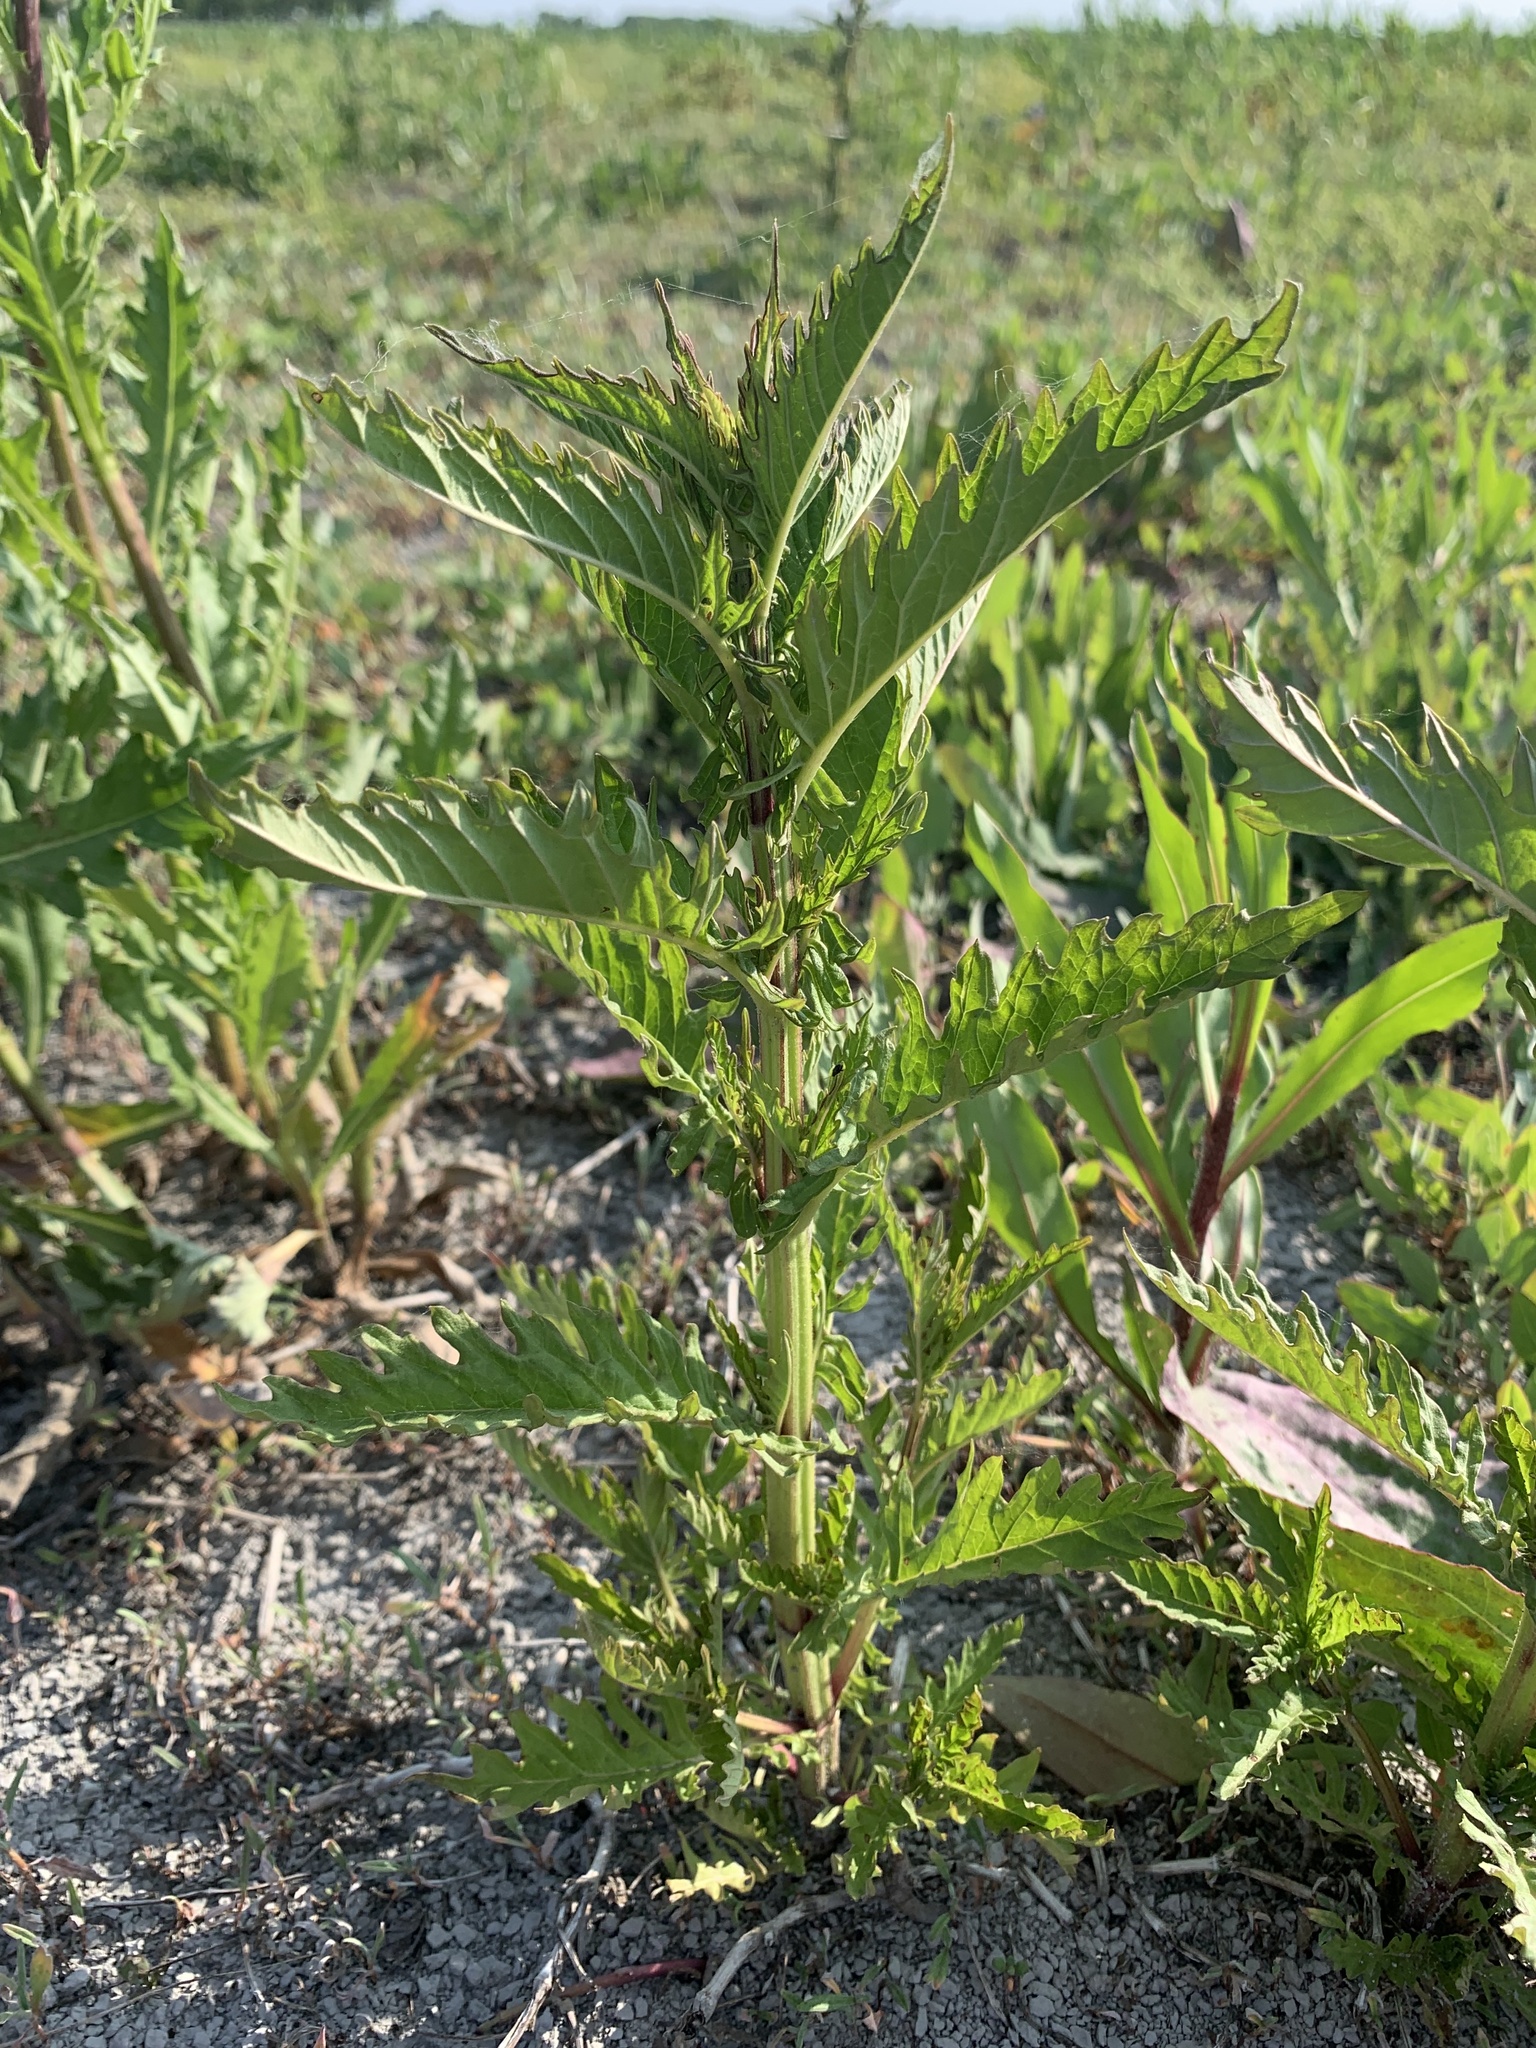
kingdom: Plantae
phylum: Tracheophyta
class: Magnoliopsida
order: Lamiales
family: Lamiaceae
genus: Lycopus
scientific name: Lycopus europaeus
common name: European bugleweed
